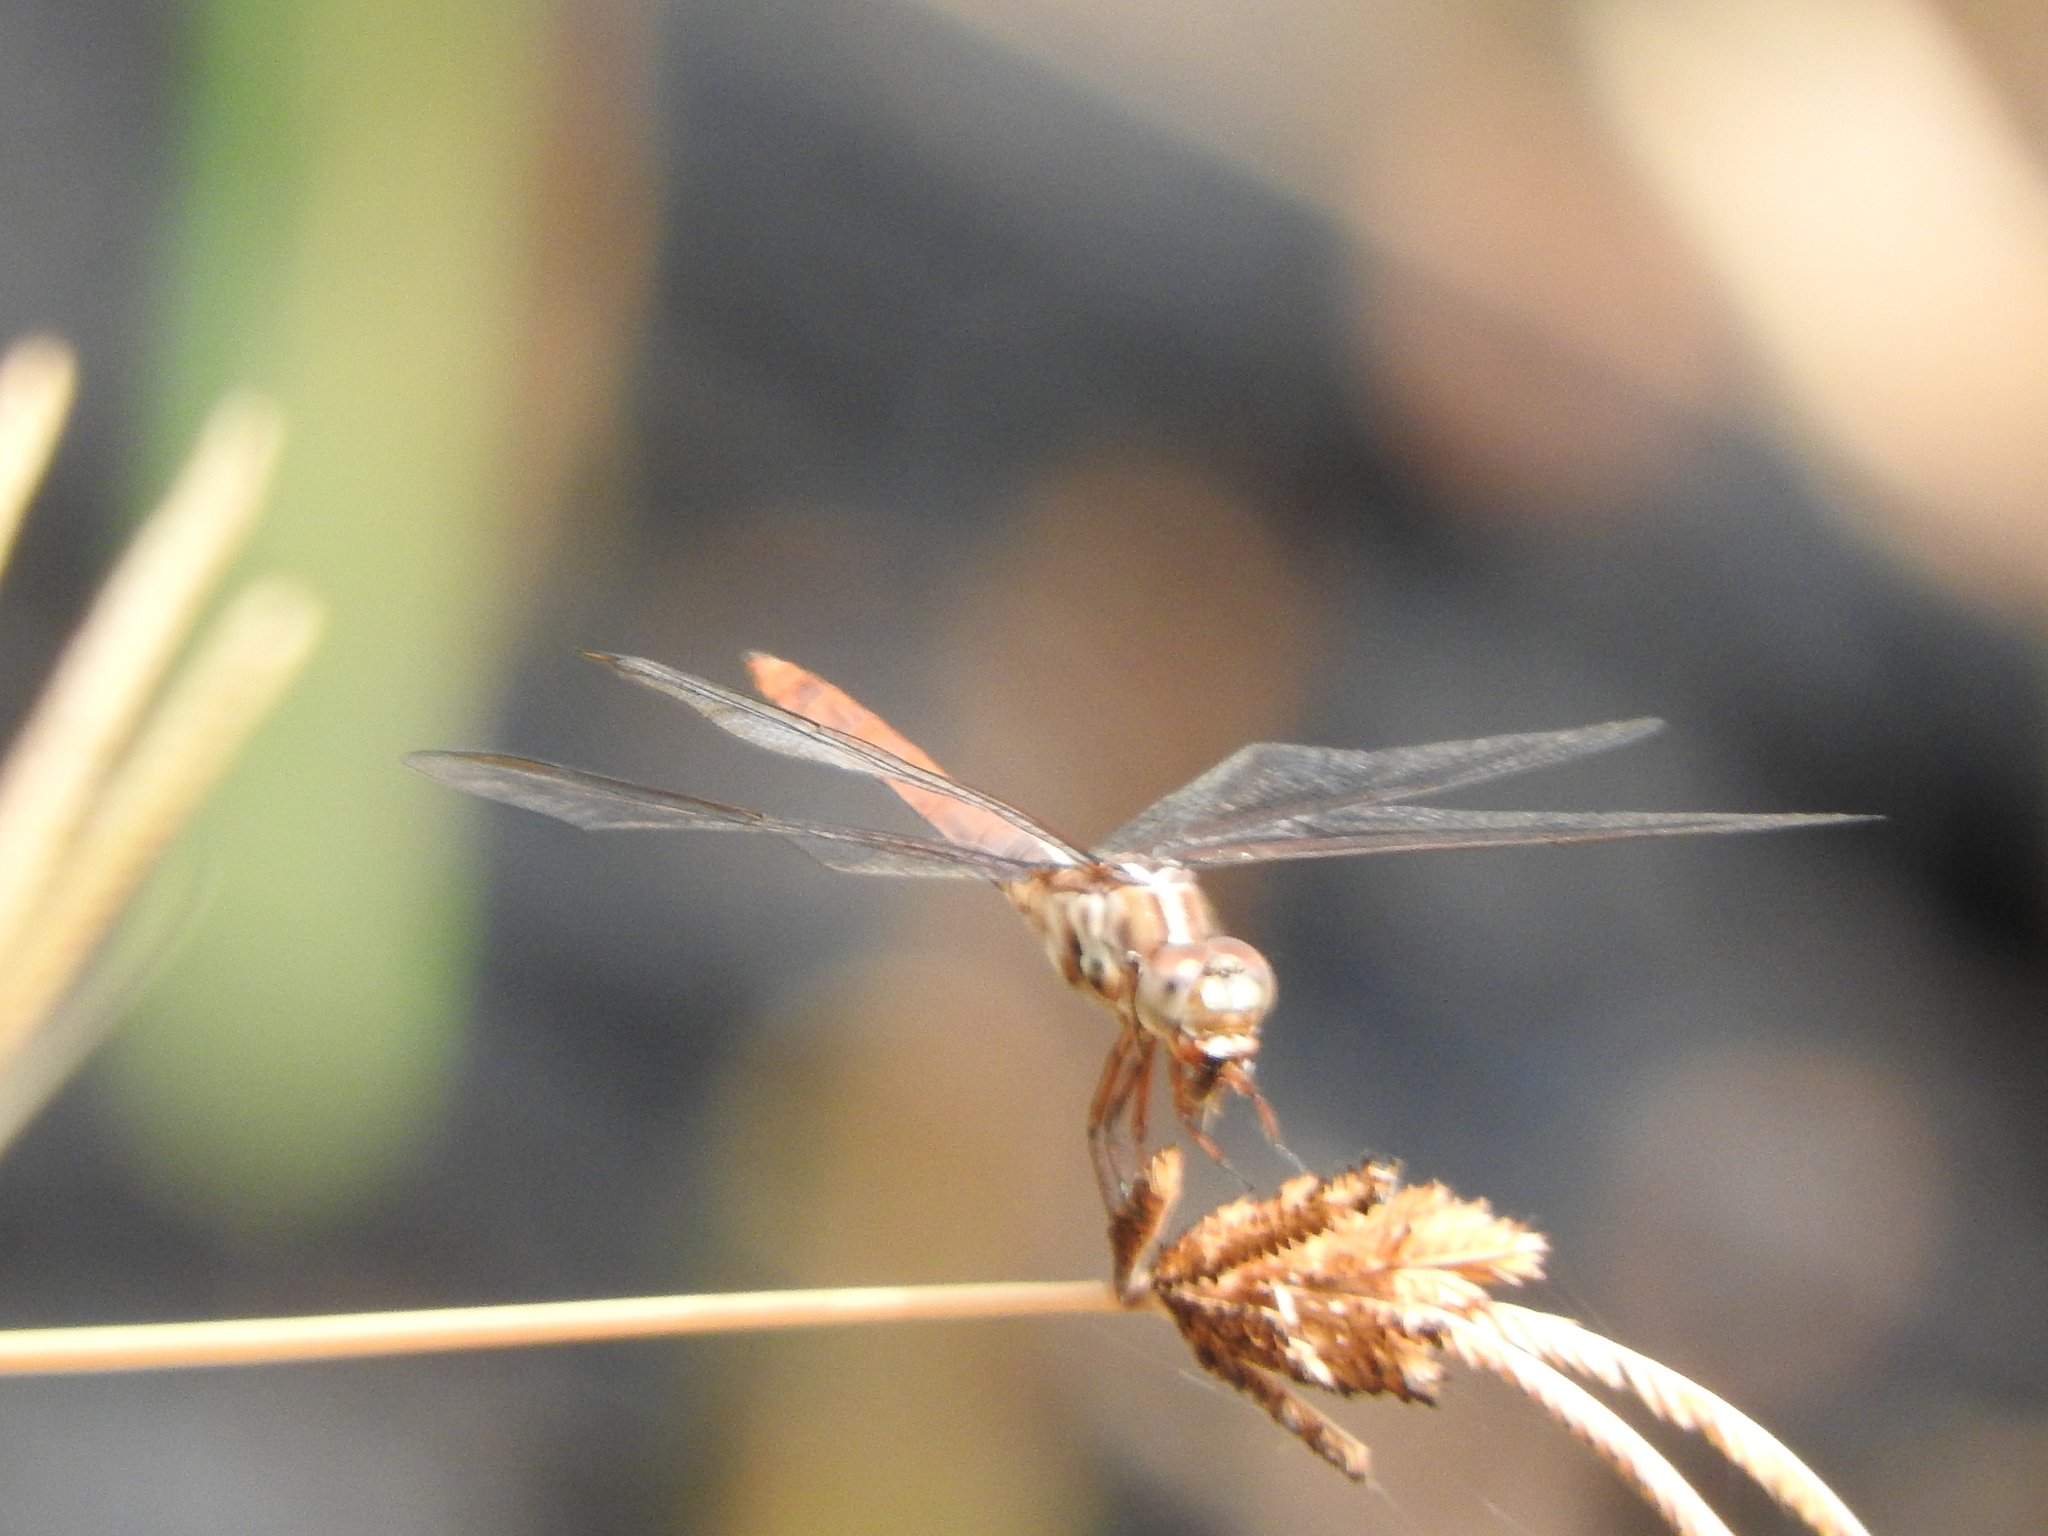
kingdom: Animalia
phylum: Arthropoda
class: Insecta
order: Odonata
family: Libellulidae
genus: Orthemis
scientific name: Orthemis ferruginea
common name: Roseate skimmer
